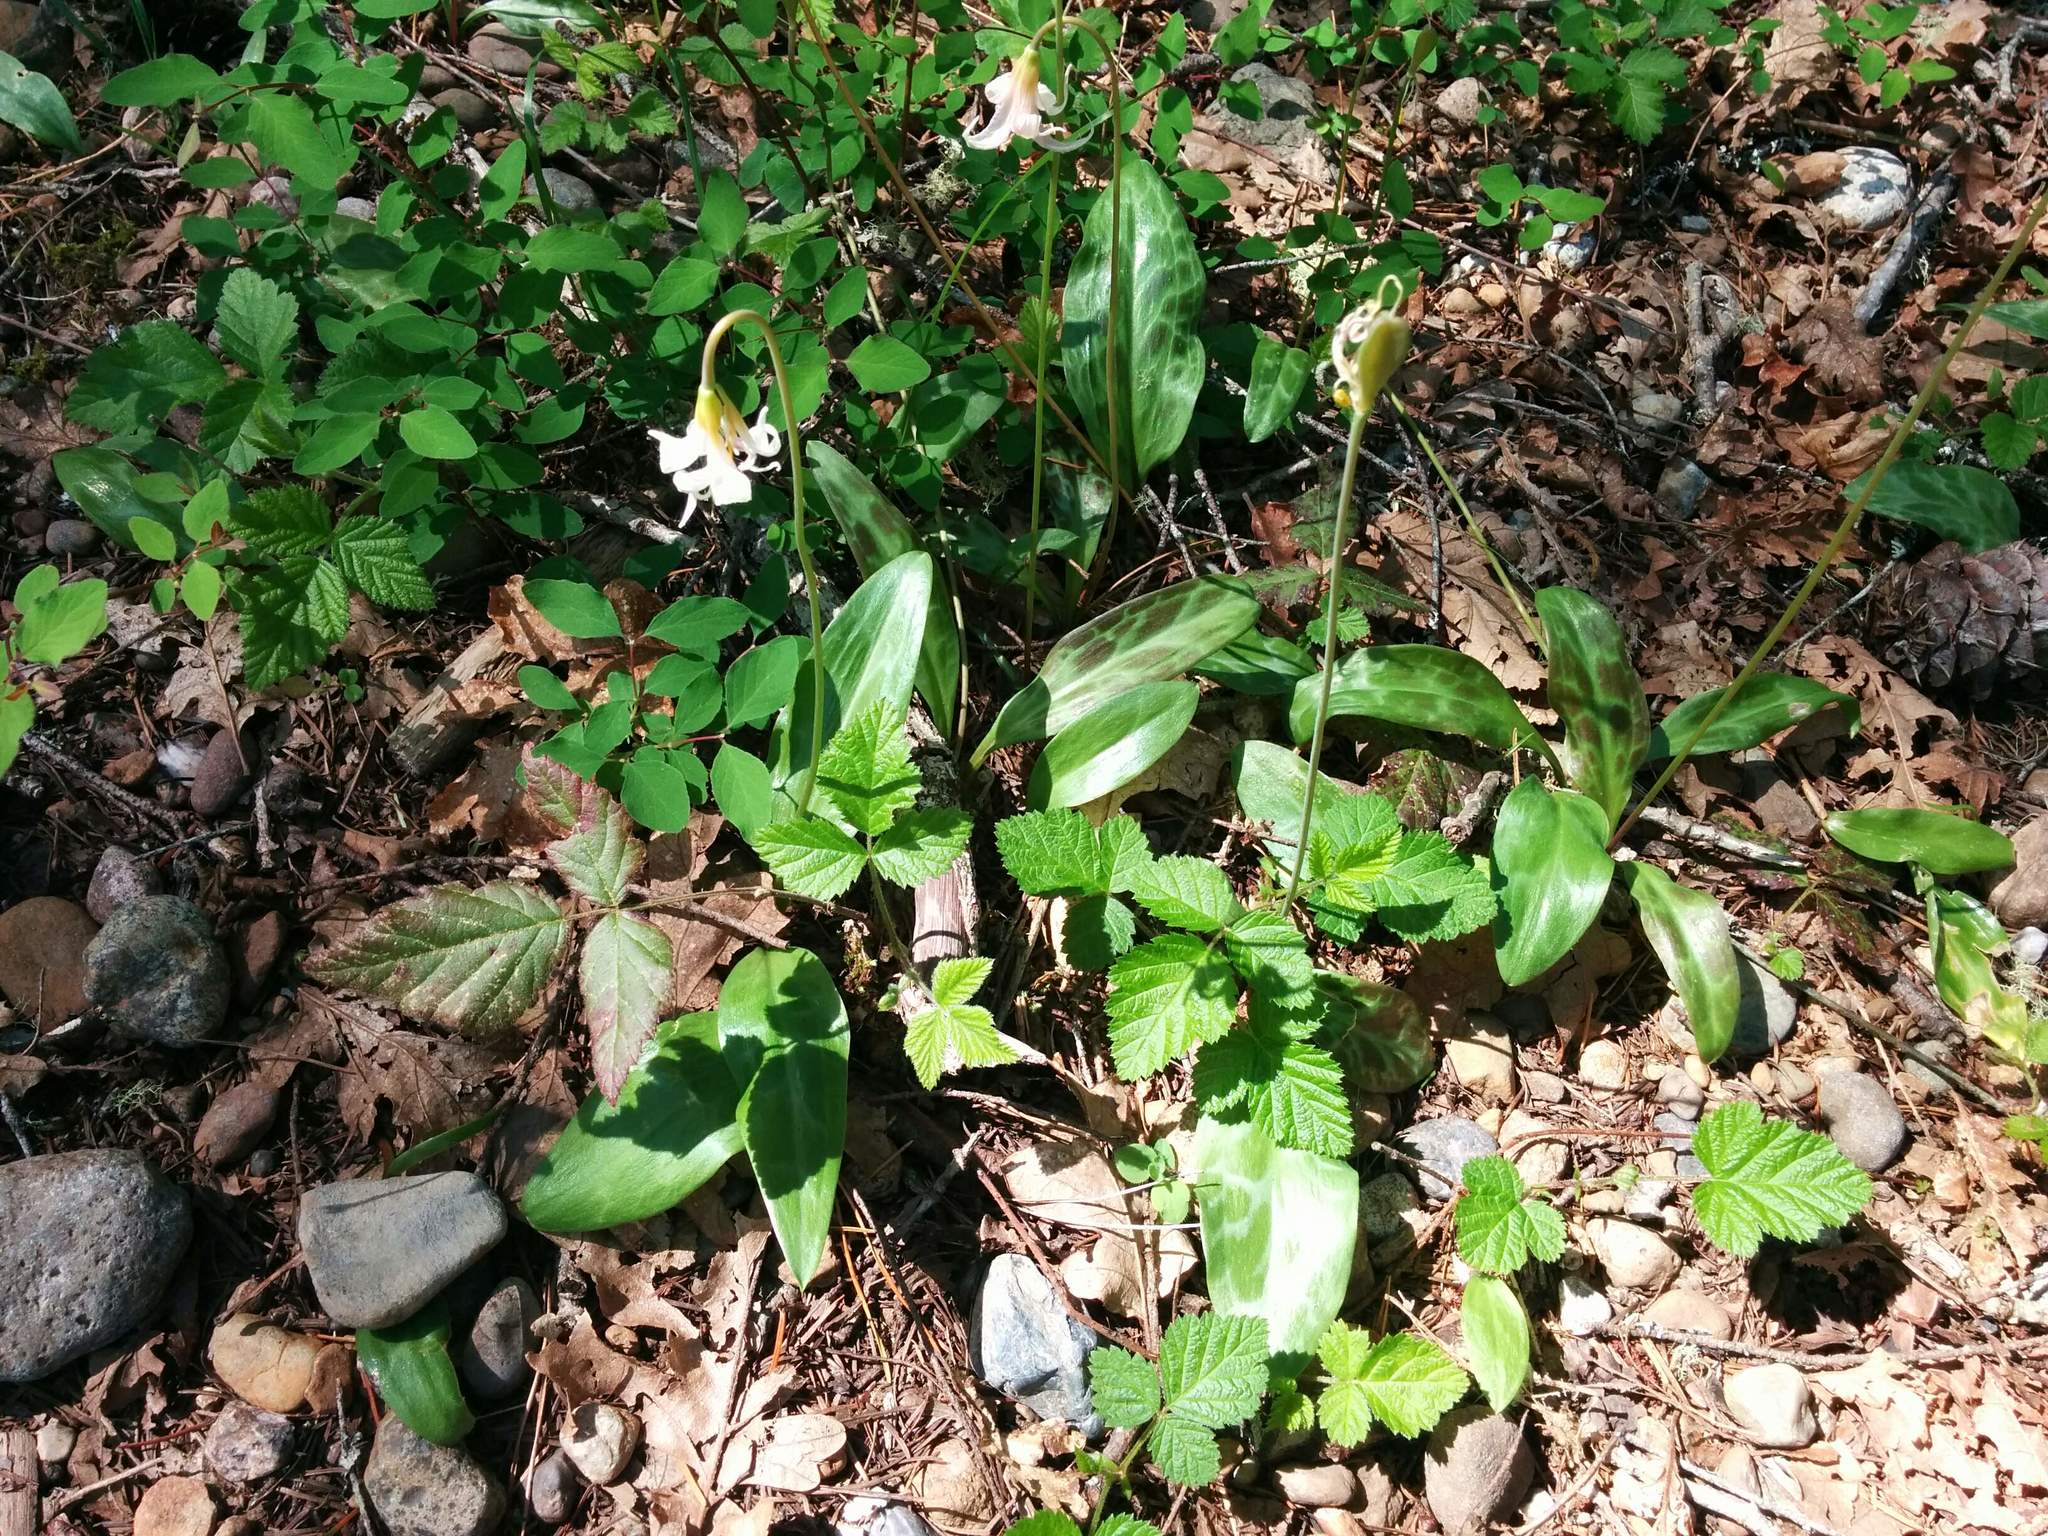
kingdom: Plantae
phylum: Tracheophyta
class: Liliopsida
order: Liliales
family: Liliaceae
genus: Erythronium
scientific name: Erythronium oregonum
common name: Giant adder's-tongue
